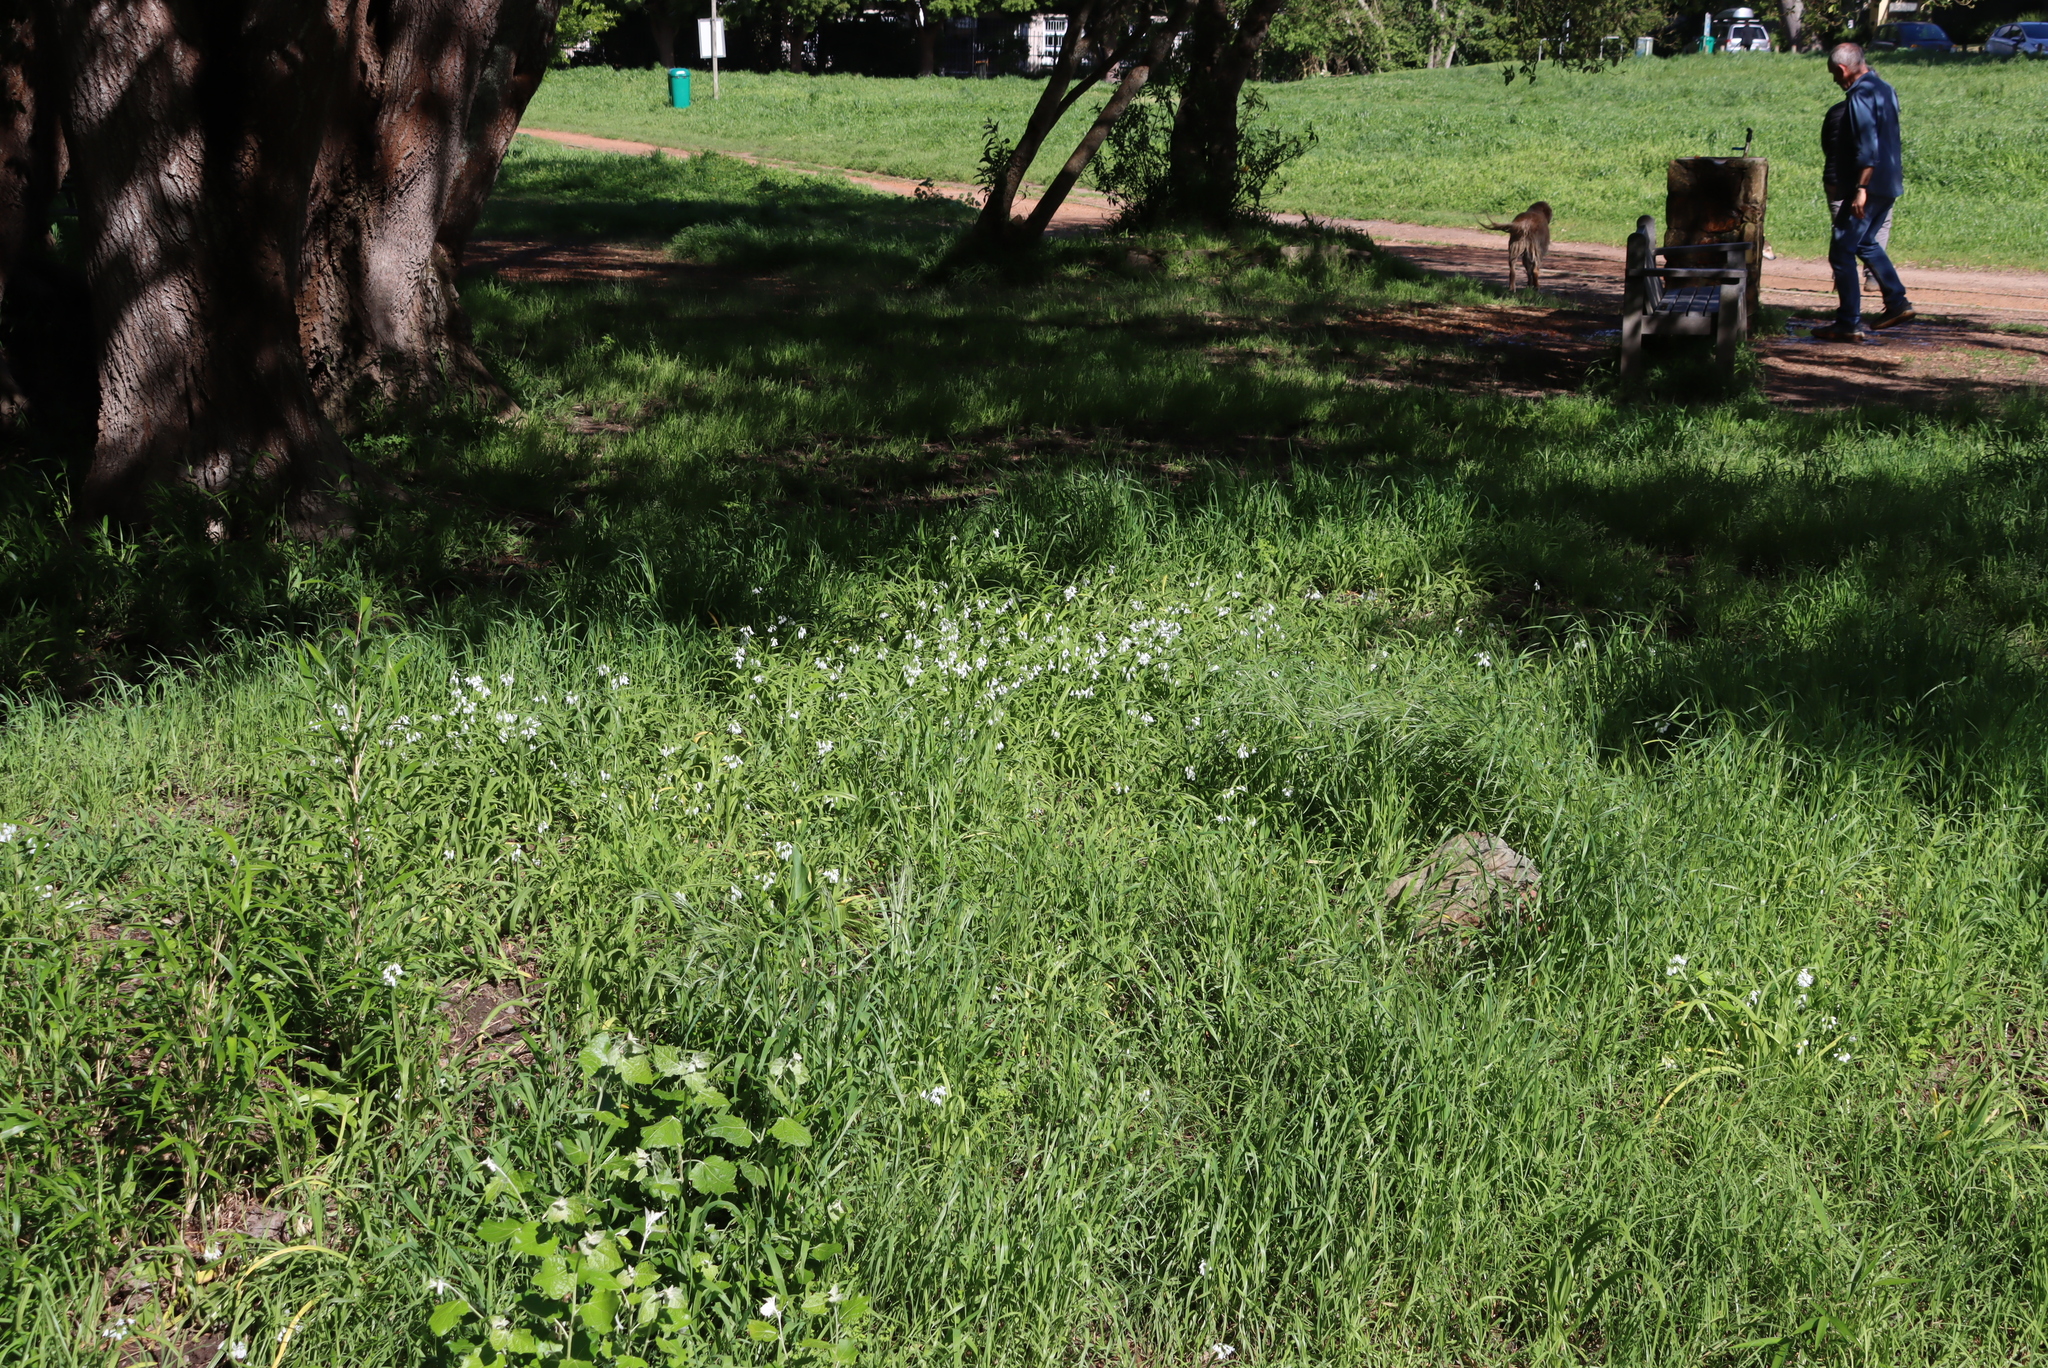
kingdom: Plantae
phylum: Tracheophyta
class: Liliopsida
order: Asparagales
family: Amaryllidaceae
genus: Allium
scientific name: Allium triquetrum
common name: Three-cornered garlic
